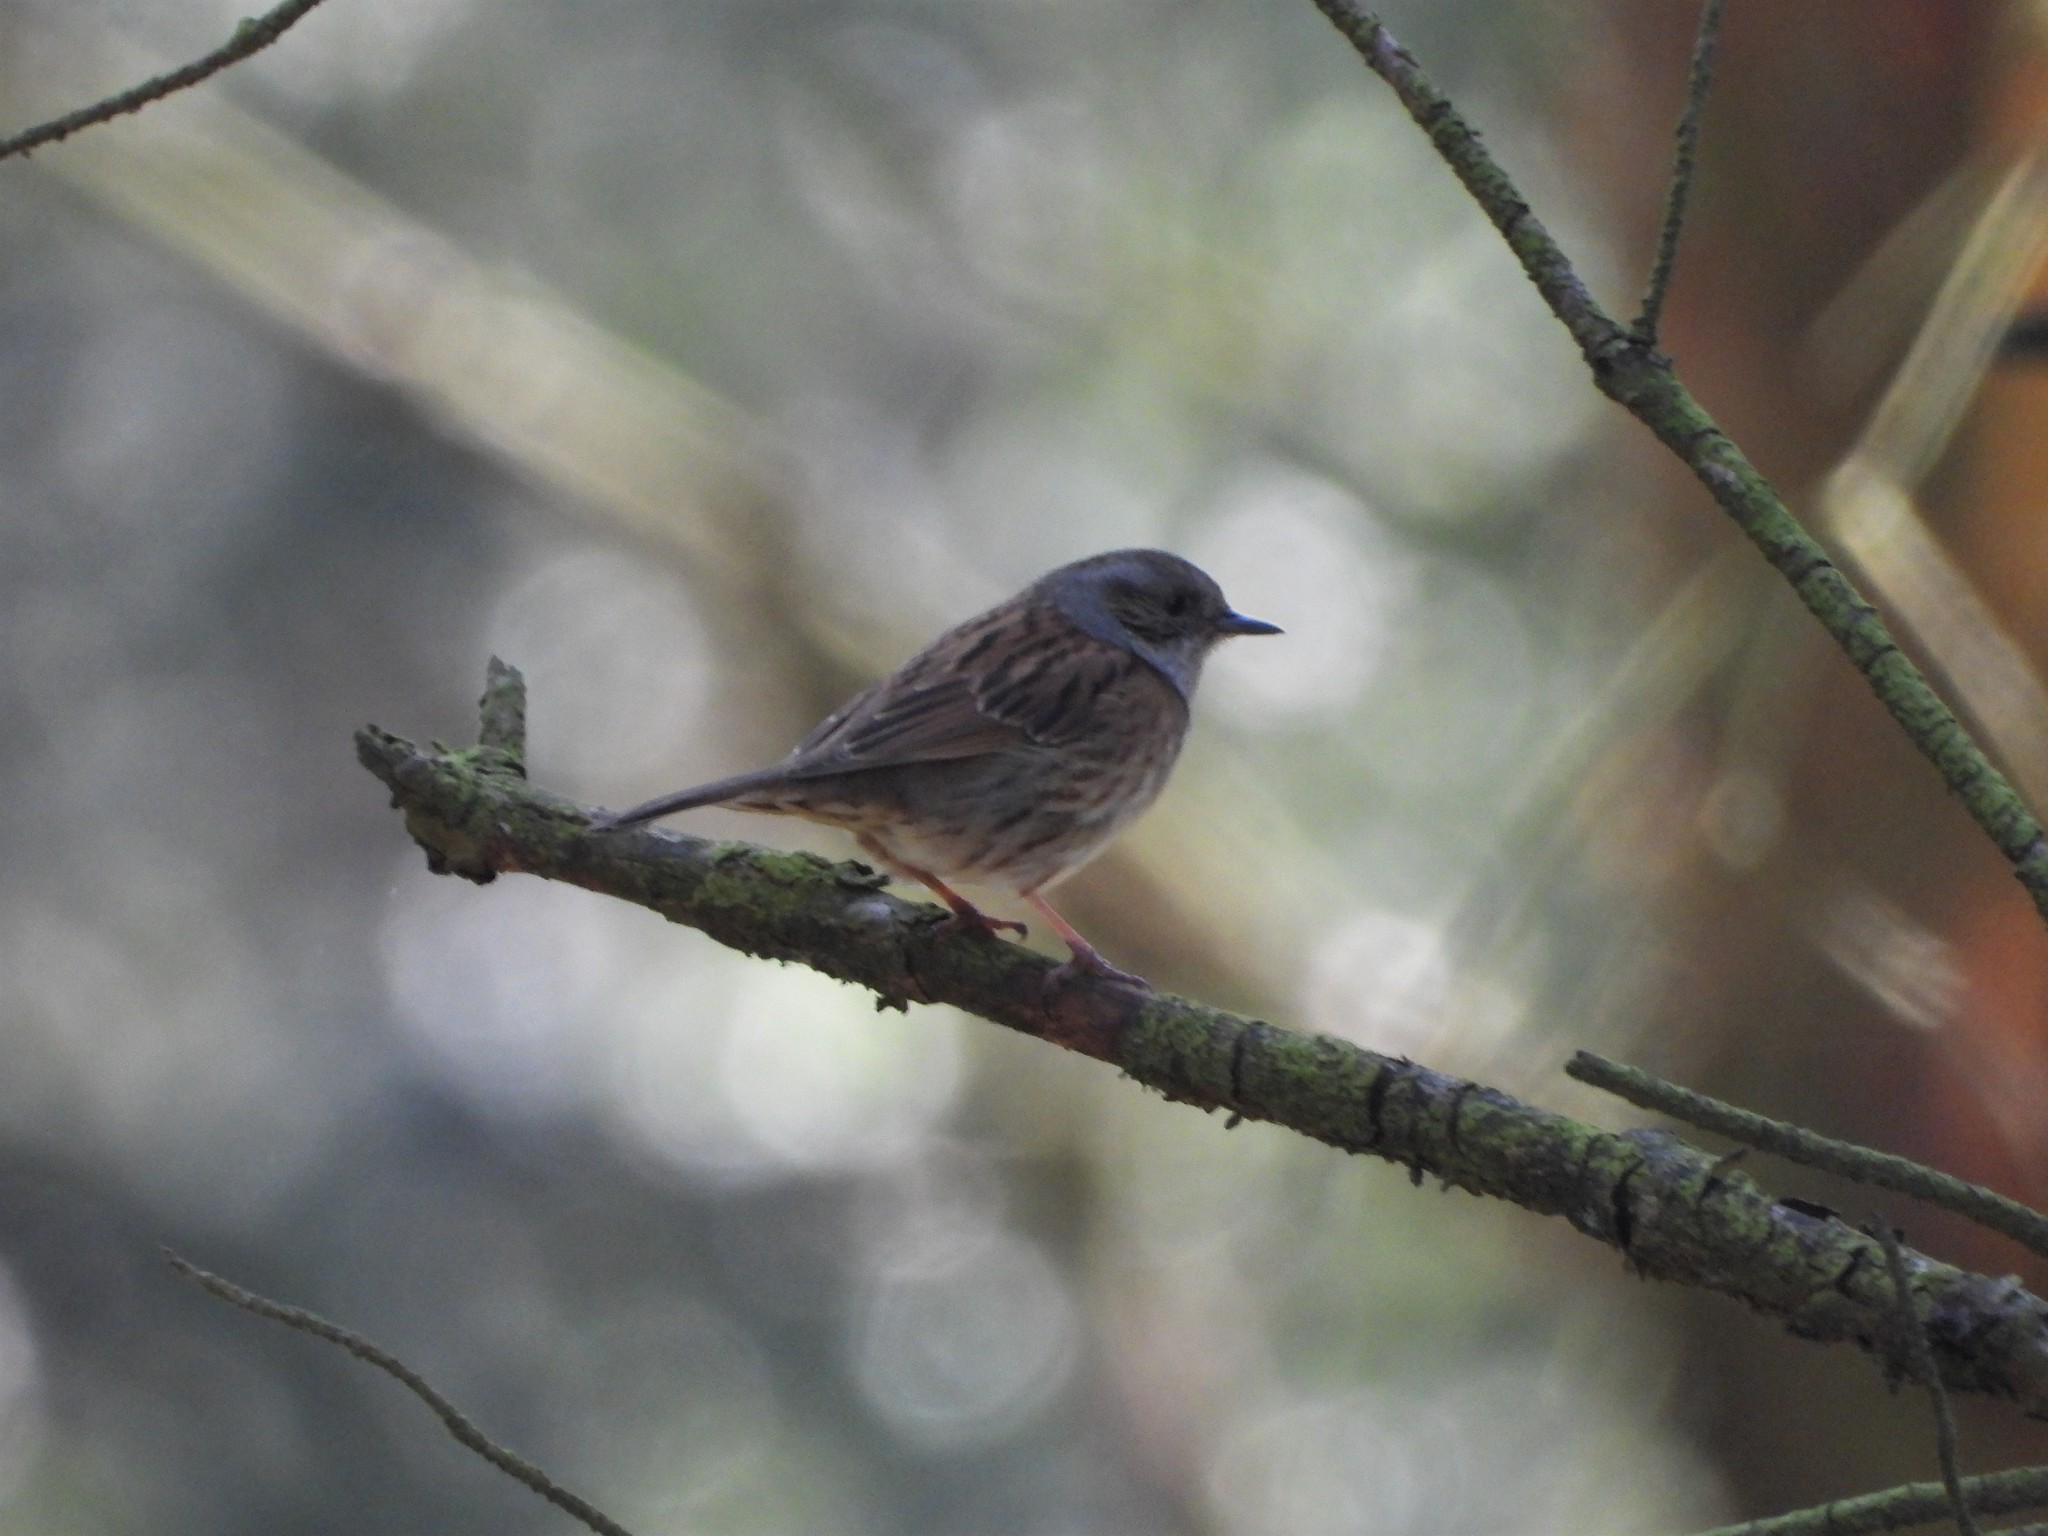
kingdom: Animalia
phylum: Chordata
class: Aves
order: Passeriformes
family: Prunellidae
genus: Prunella
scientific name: Prunella modularis
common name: Dunnock
